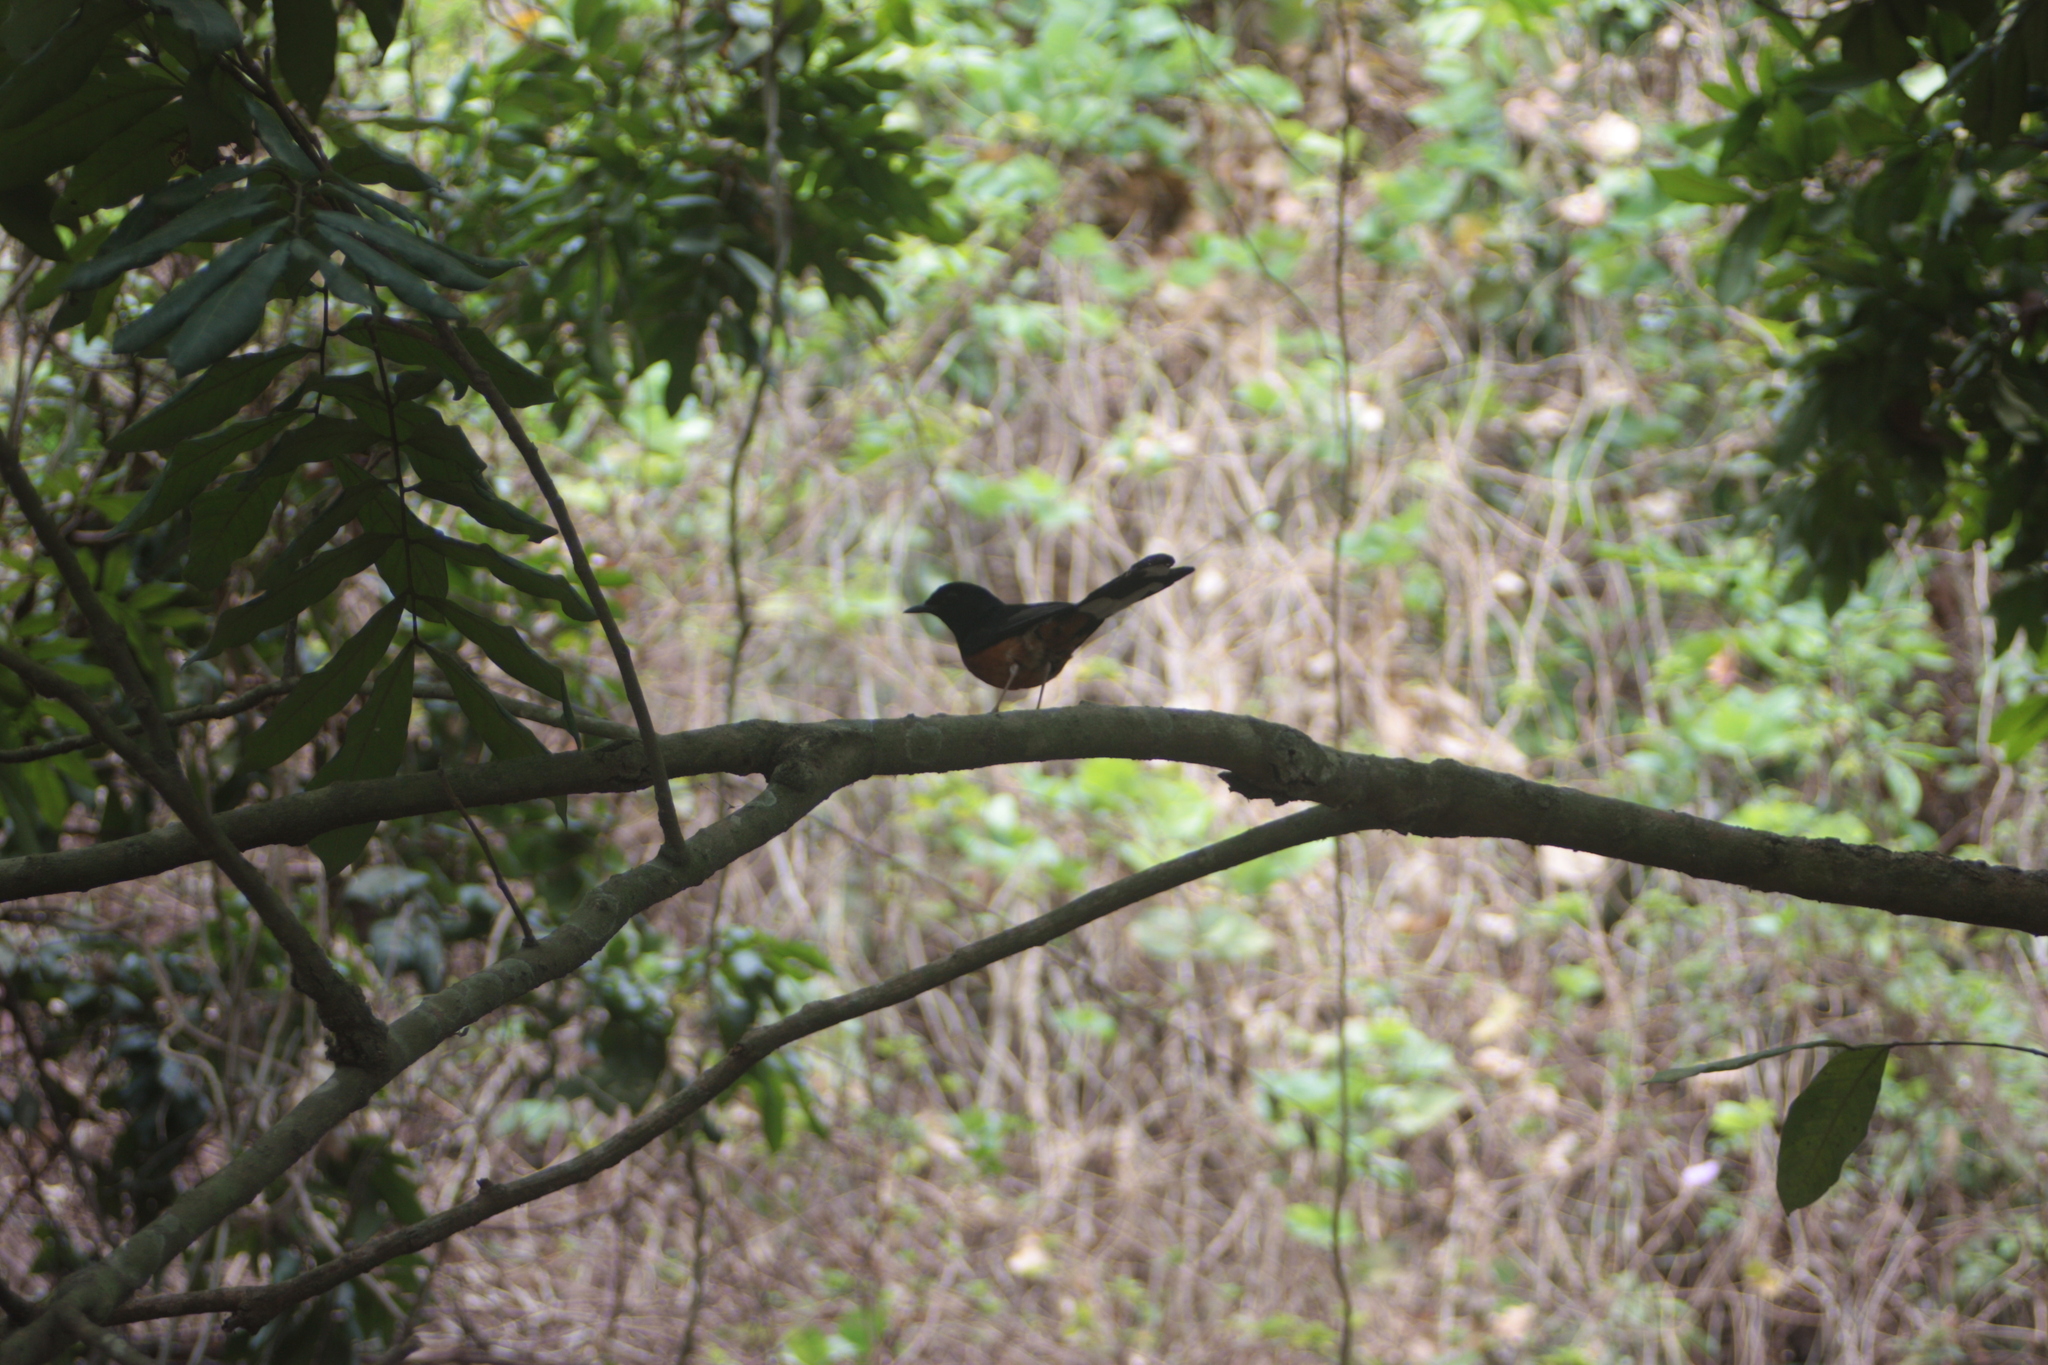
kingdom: Animalia
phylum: Chordata
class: Aves
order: Passeriformes
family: Muscicapidae
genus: Copsychus
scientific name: Copsychus malabaricus
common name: White-rumped shama
